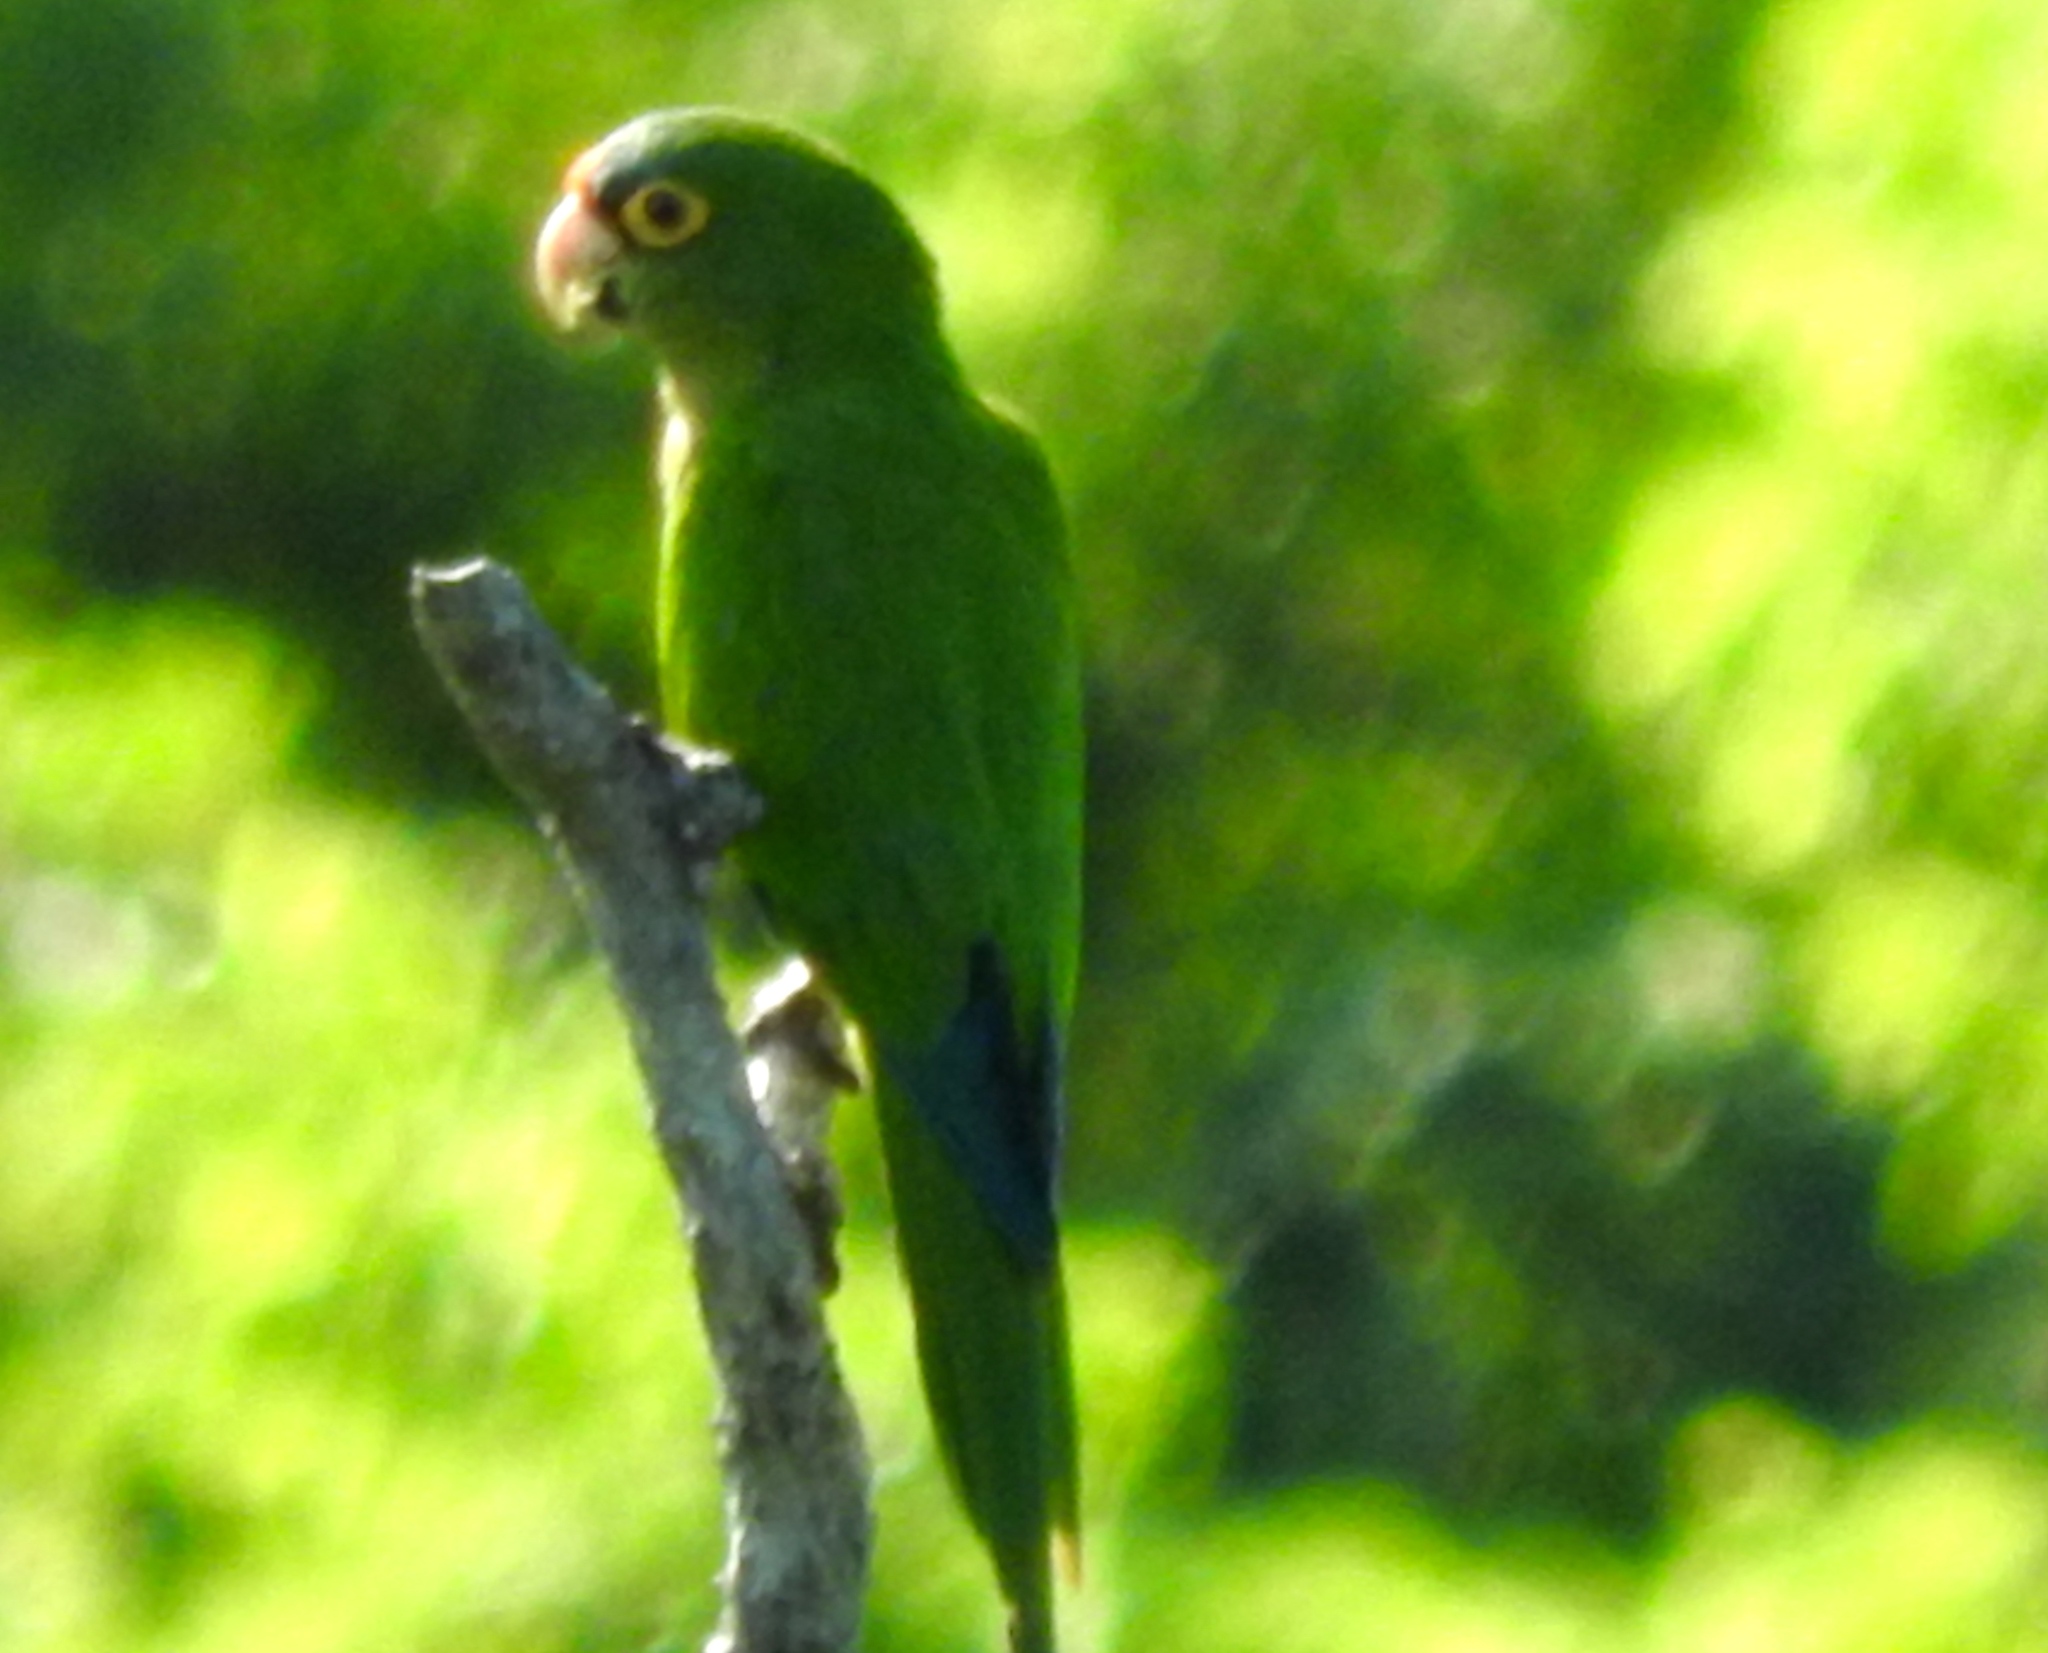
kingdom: Animalia
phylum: Chordata
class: Aves
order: Psittaciformes
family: Psittacidae
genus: Aratinga
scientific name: Aratinga canicularis
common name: Orange-fronted parakeet
